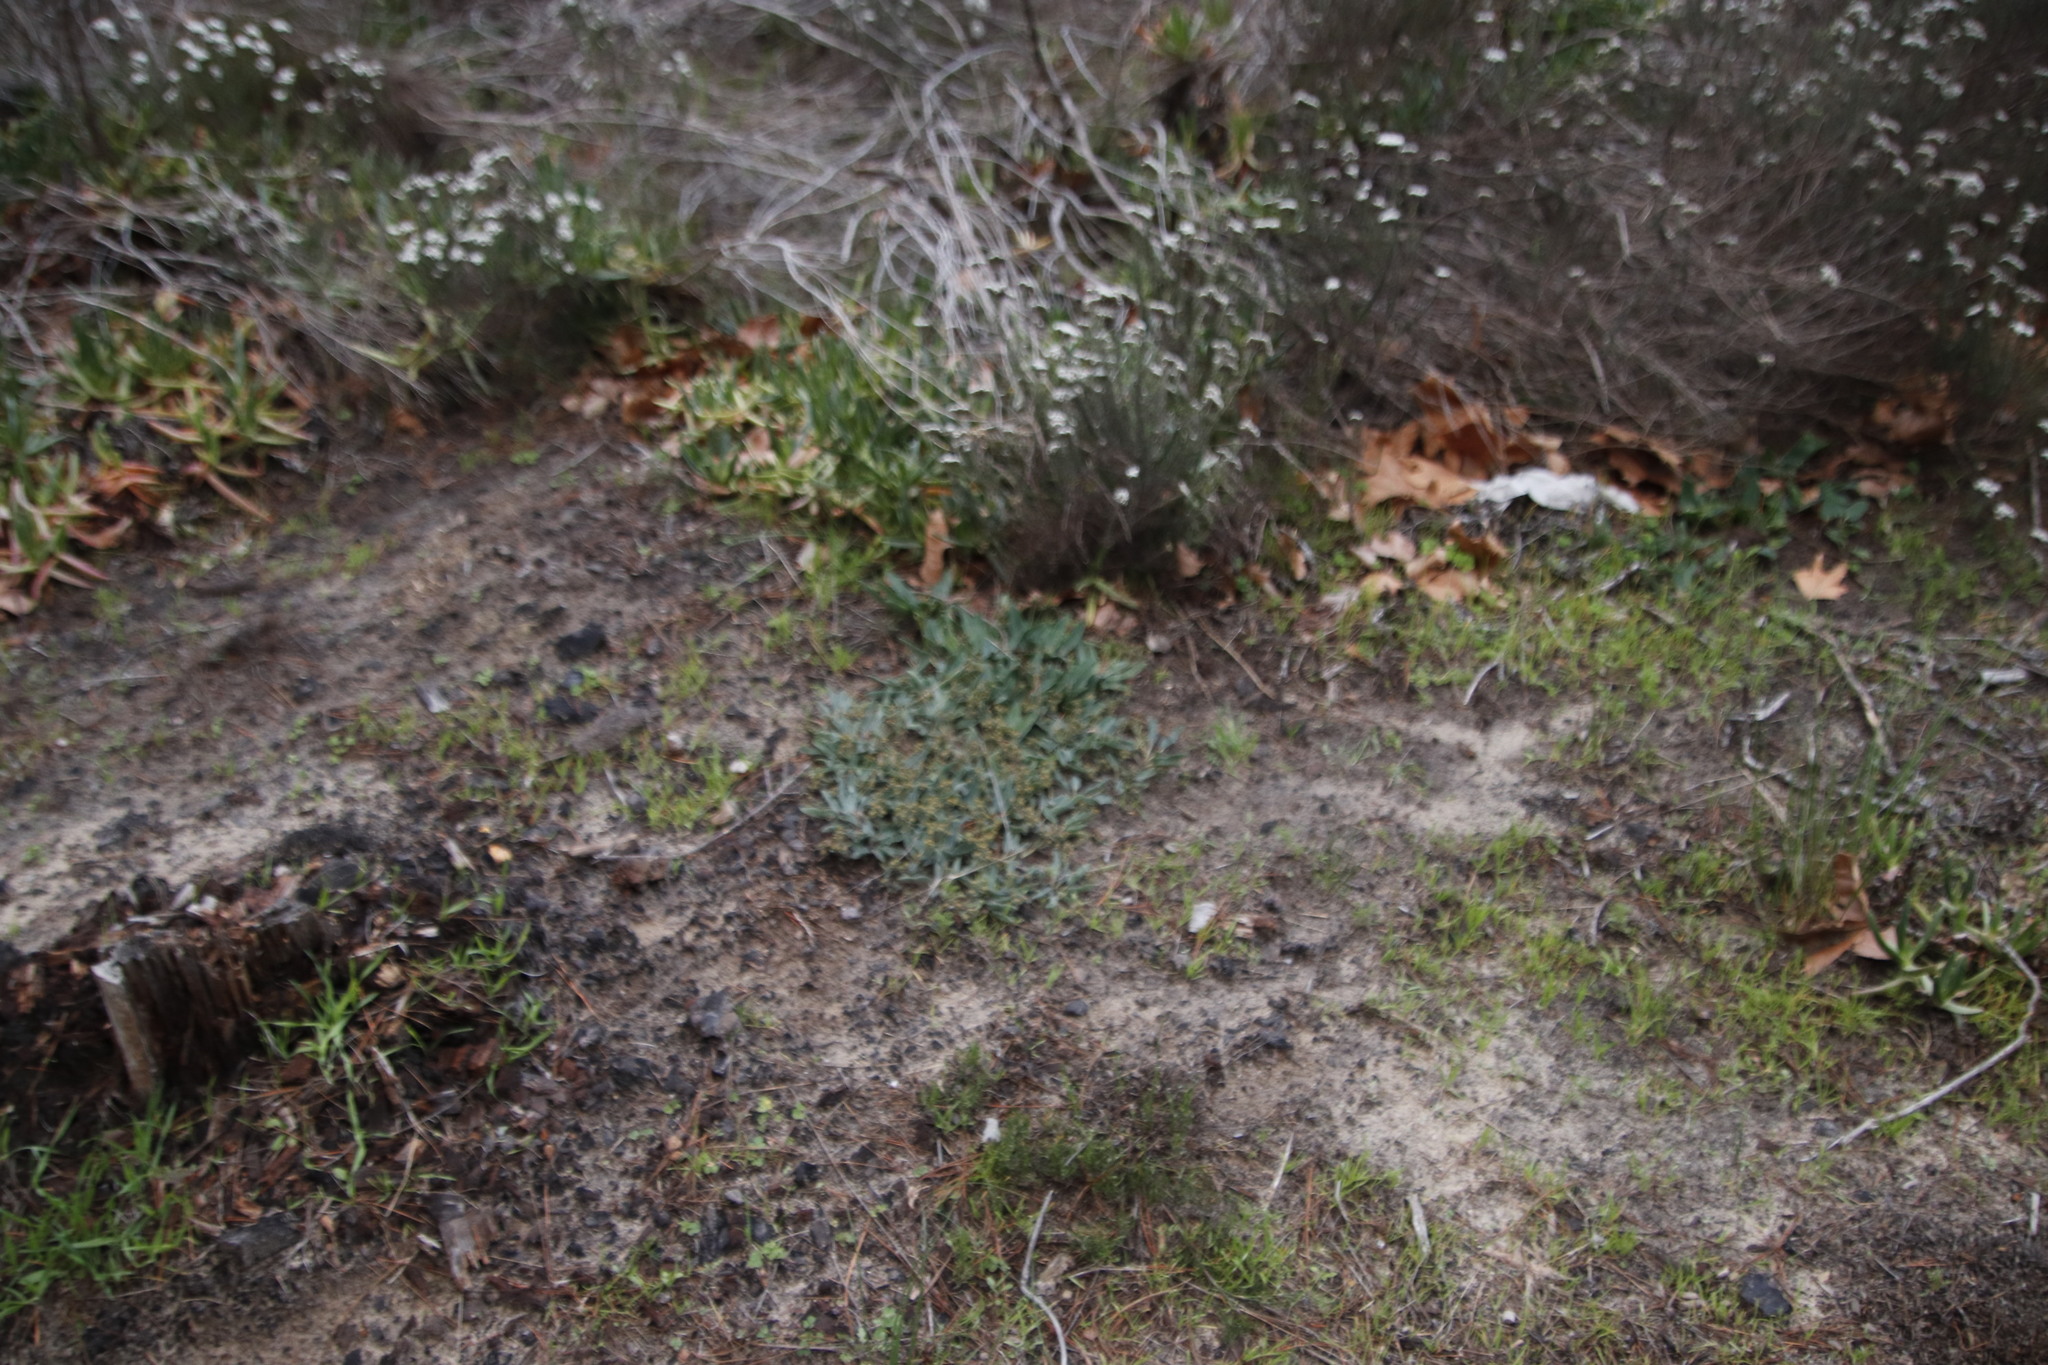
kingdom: Plantae
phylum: Tracheophyta
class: Magnoliopsida
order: Malpighiales
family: Euphorbiaceae
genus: Euphorbia
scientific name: Euphorbia tuberosa
